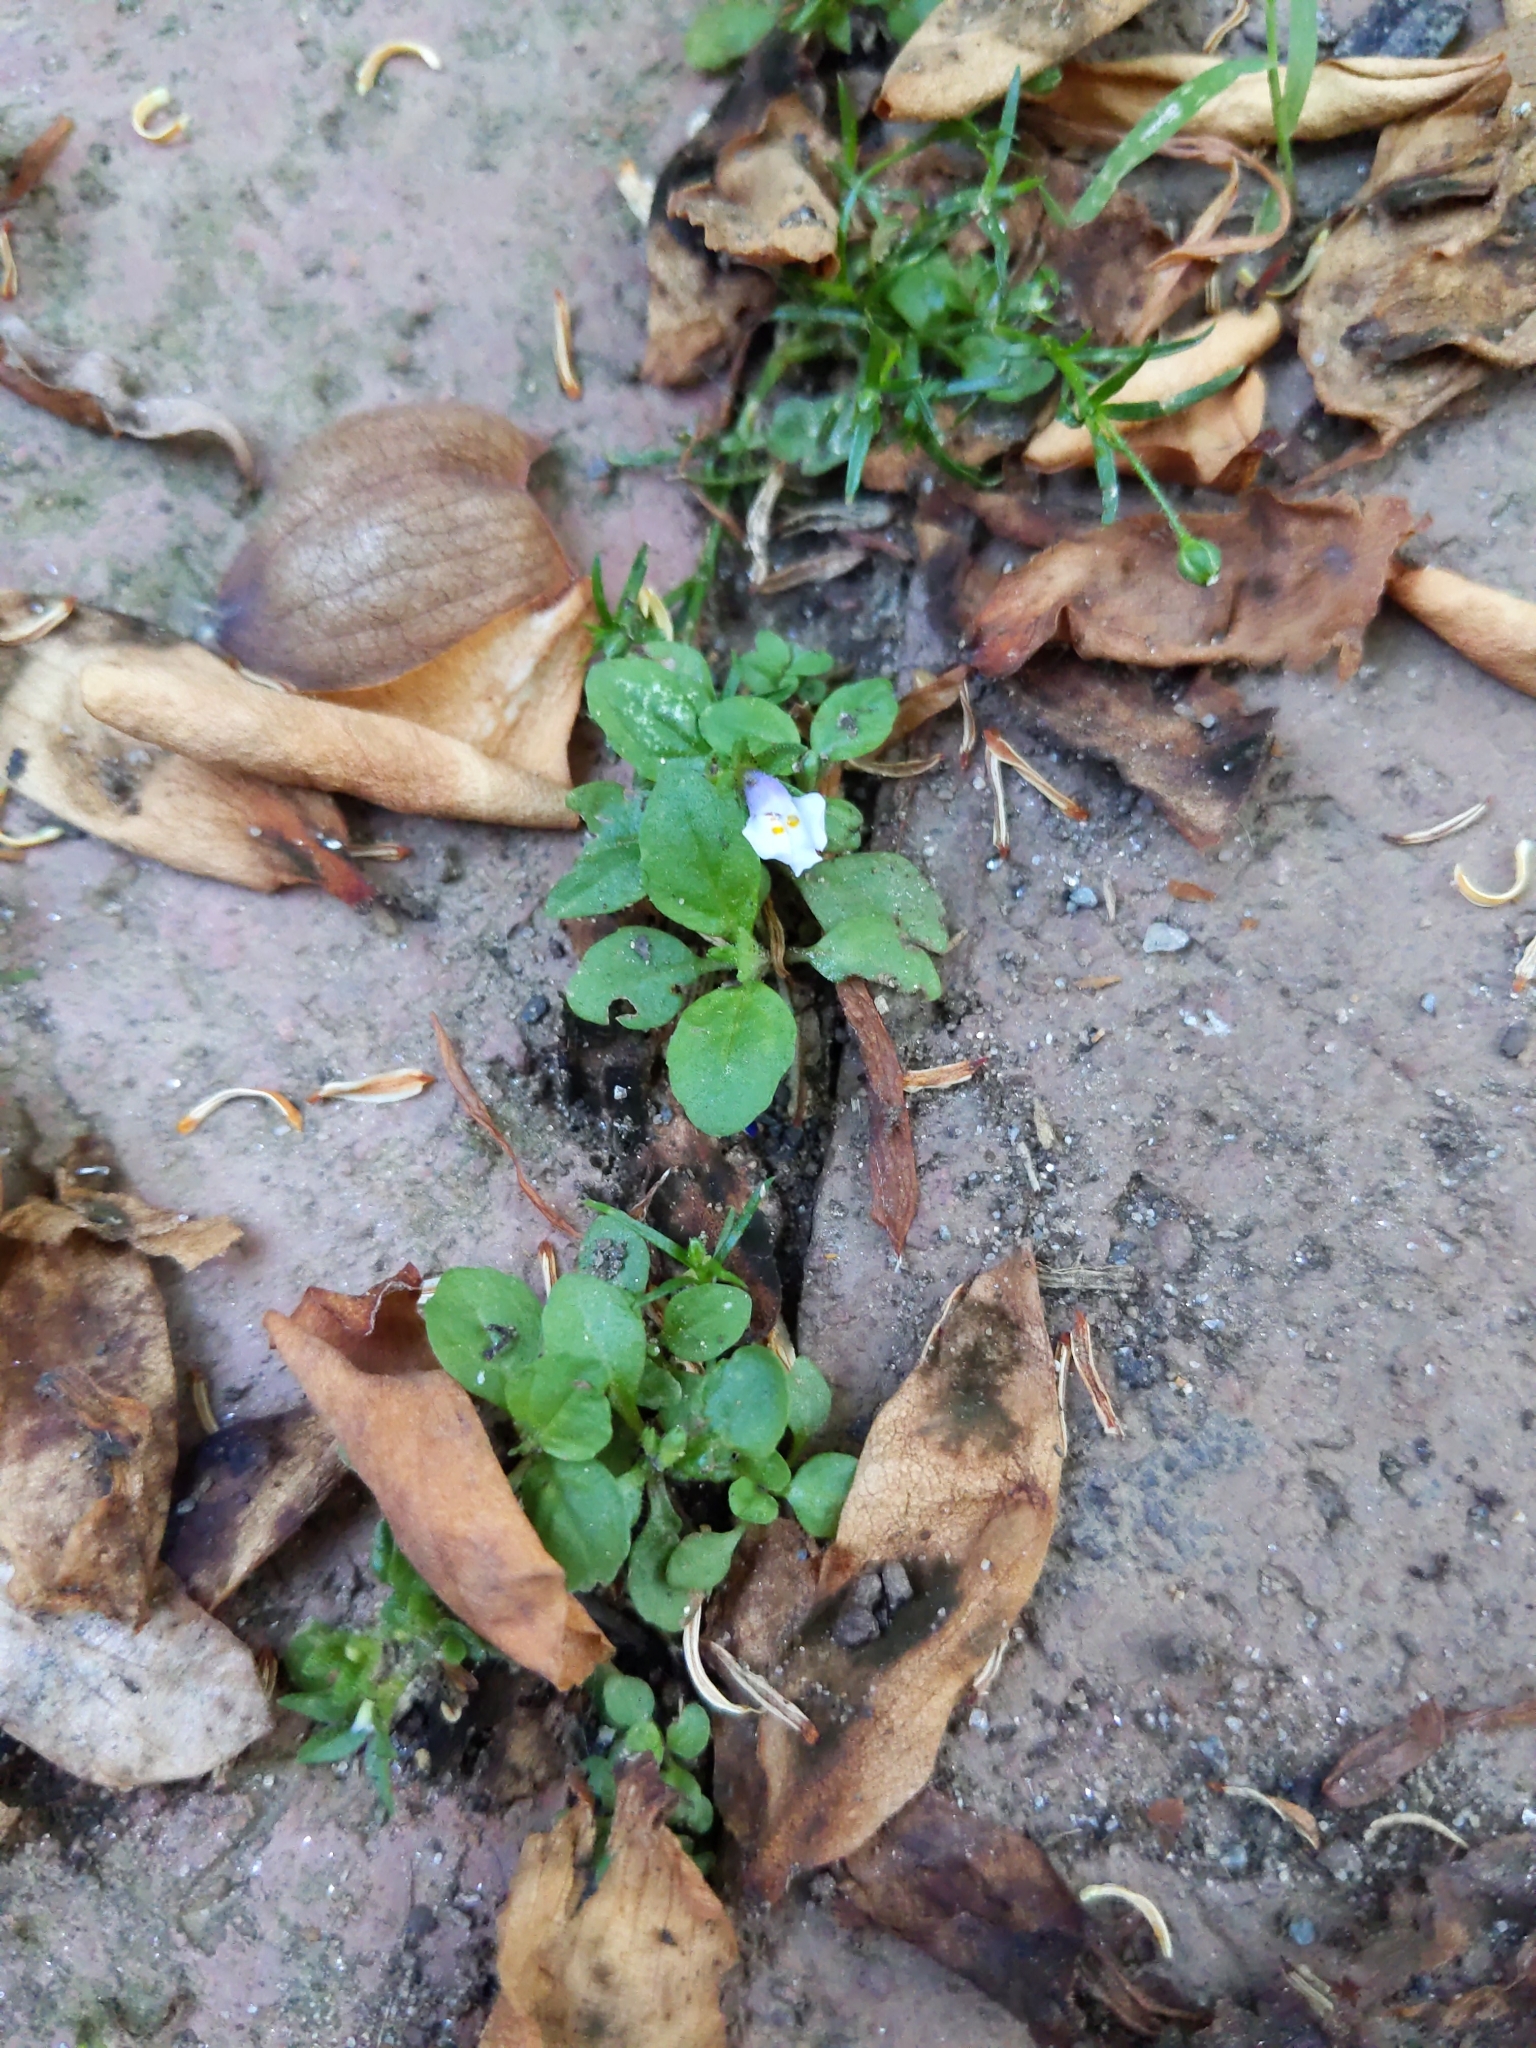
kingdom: Plantae
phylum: Tracheophyta
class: Magnoliopsida
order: Lamiales
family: Mazaceae
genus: Mazus
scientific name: Mazus pumilus
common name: Japanese mazus
